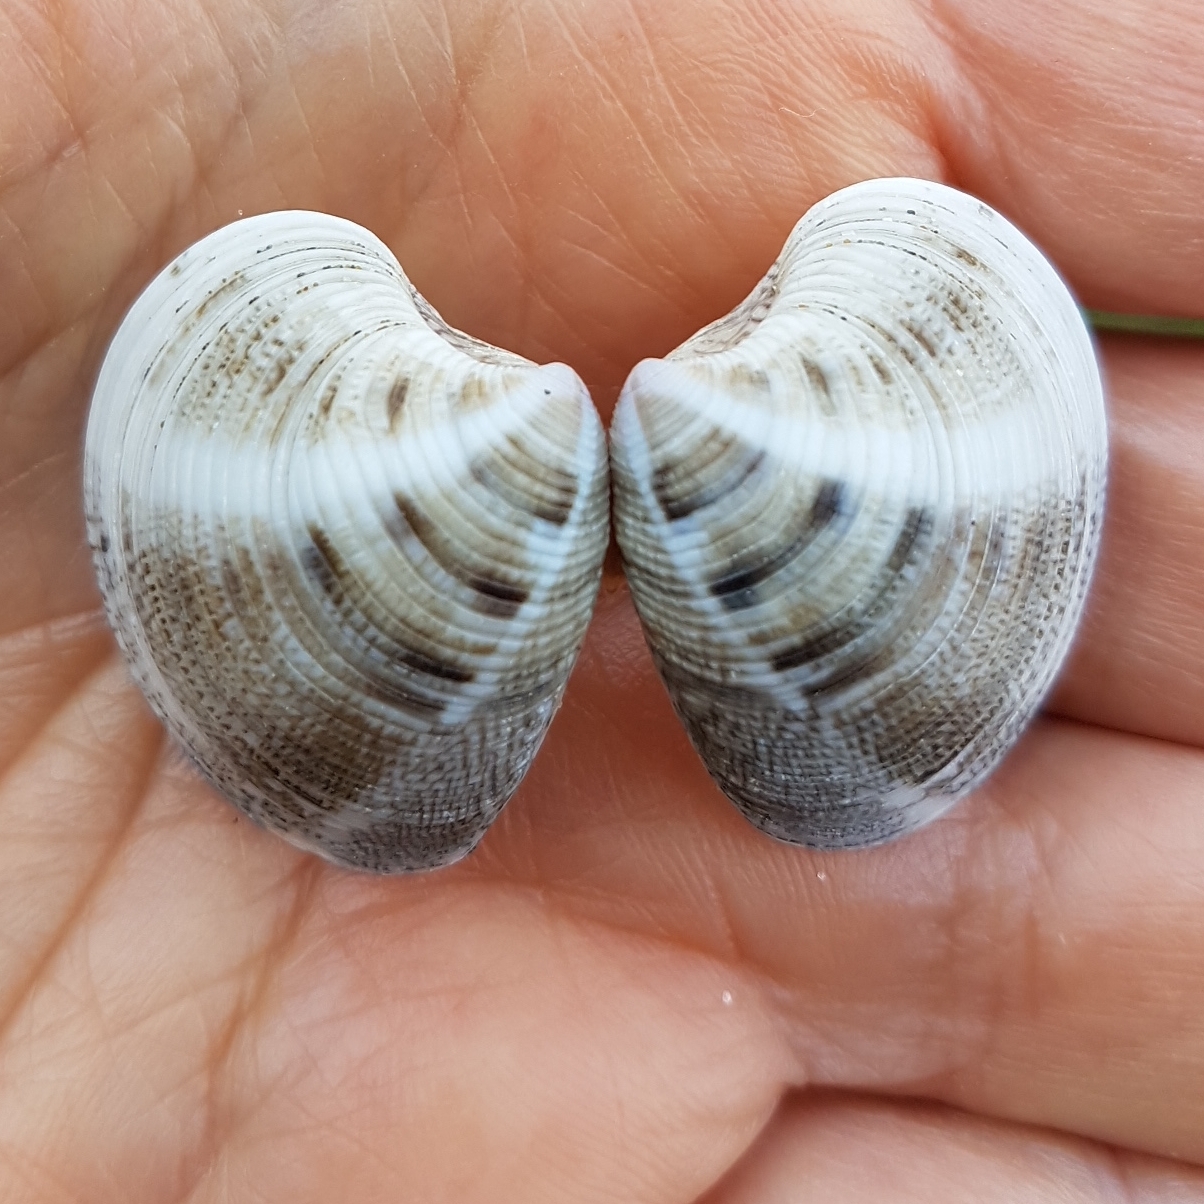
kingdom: Animalia
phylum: Mollusca
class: Bivalvia
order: Venerida
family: Veneridae
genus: Chamelea
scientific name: Chamelea gallina
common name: Chicken venus
